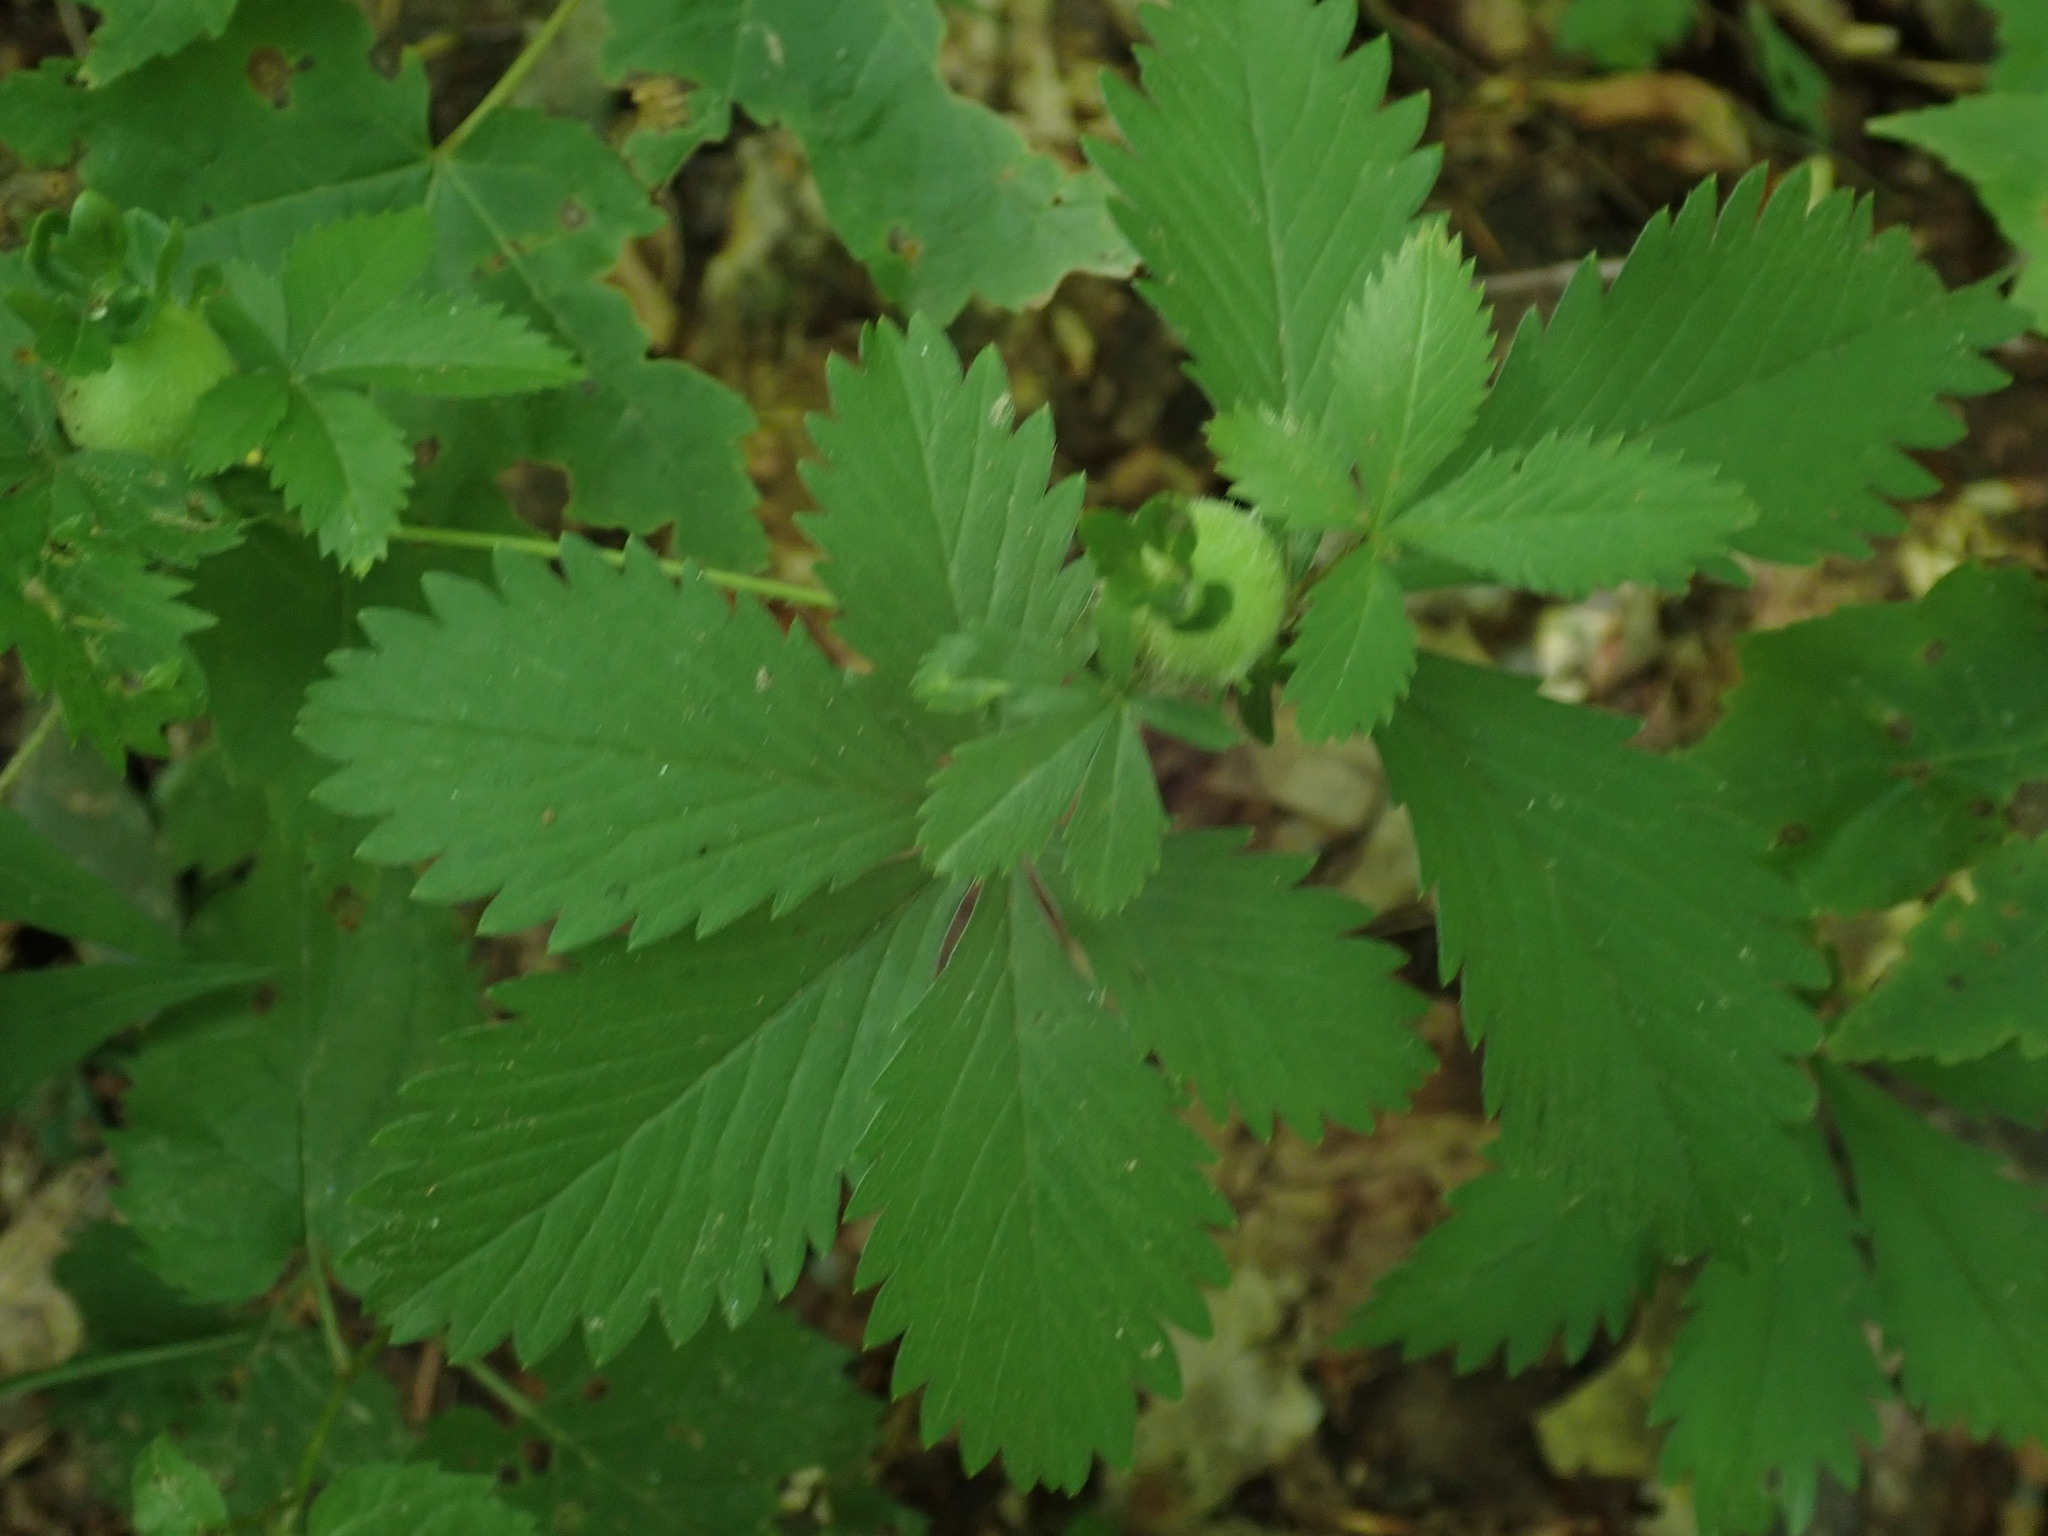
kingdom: Animalia
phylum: Arthropoda
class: Insecta
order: Hymenoptera
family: Cynipidae
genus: Diastrophus
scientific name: Diastrophus potentillae
